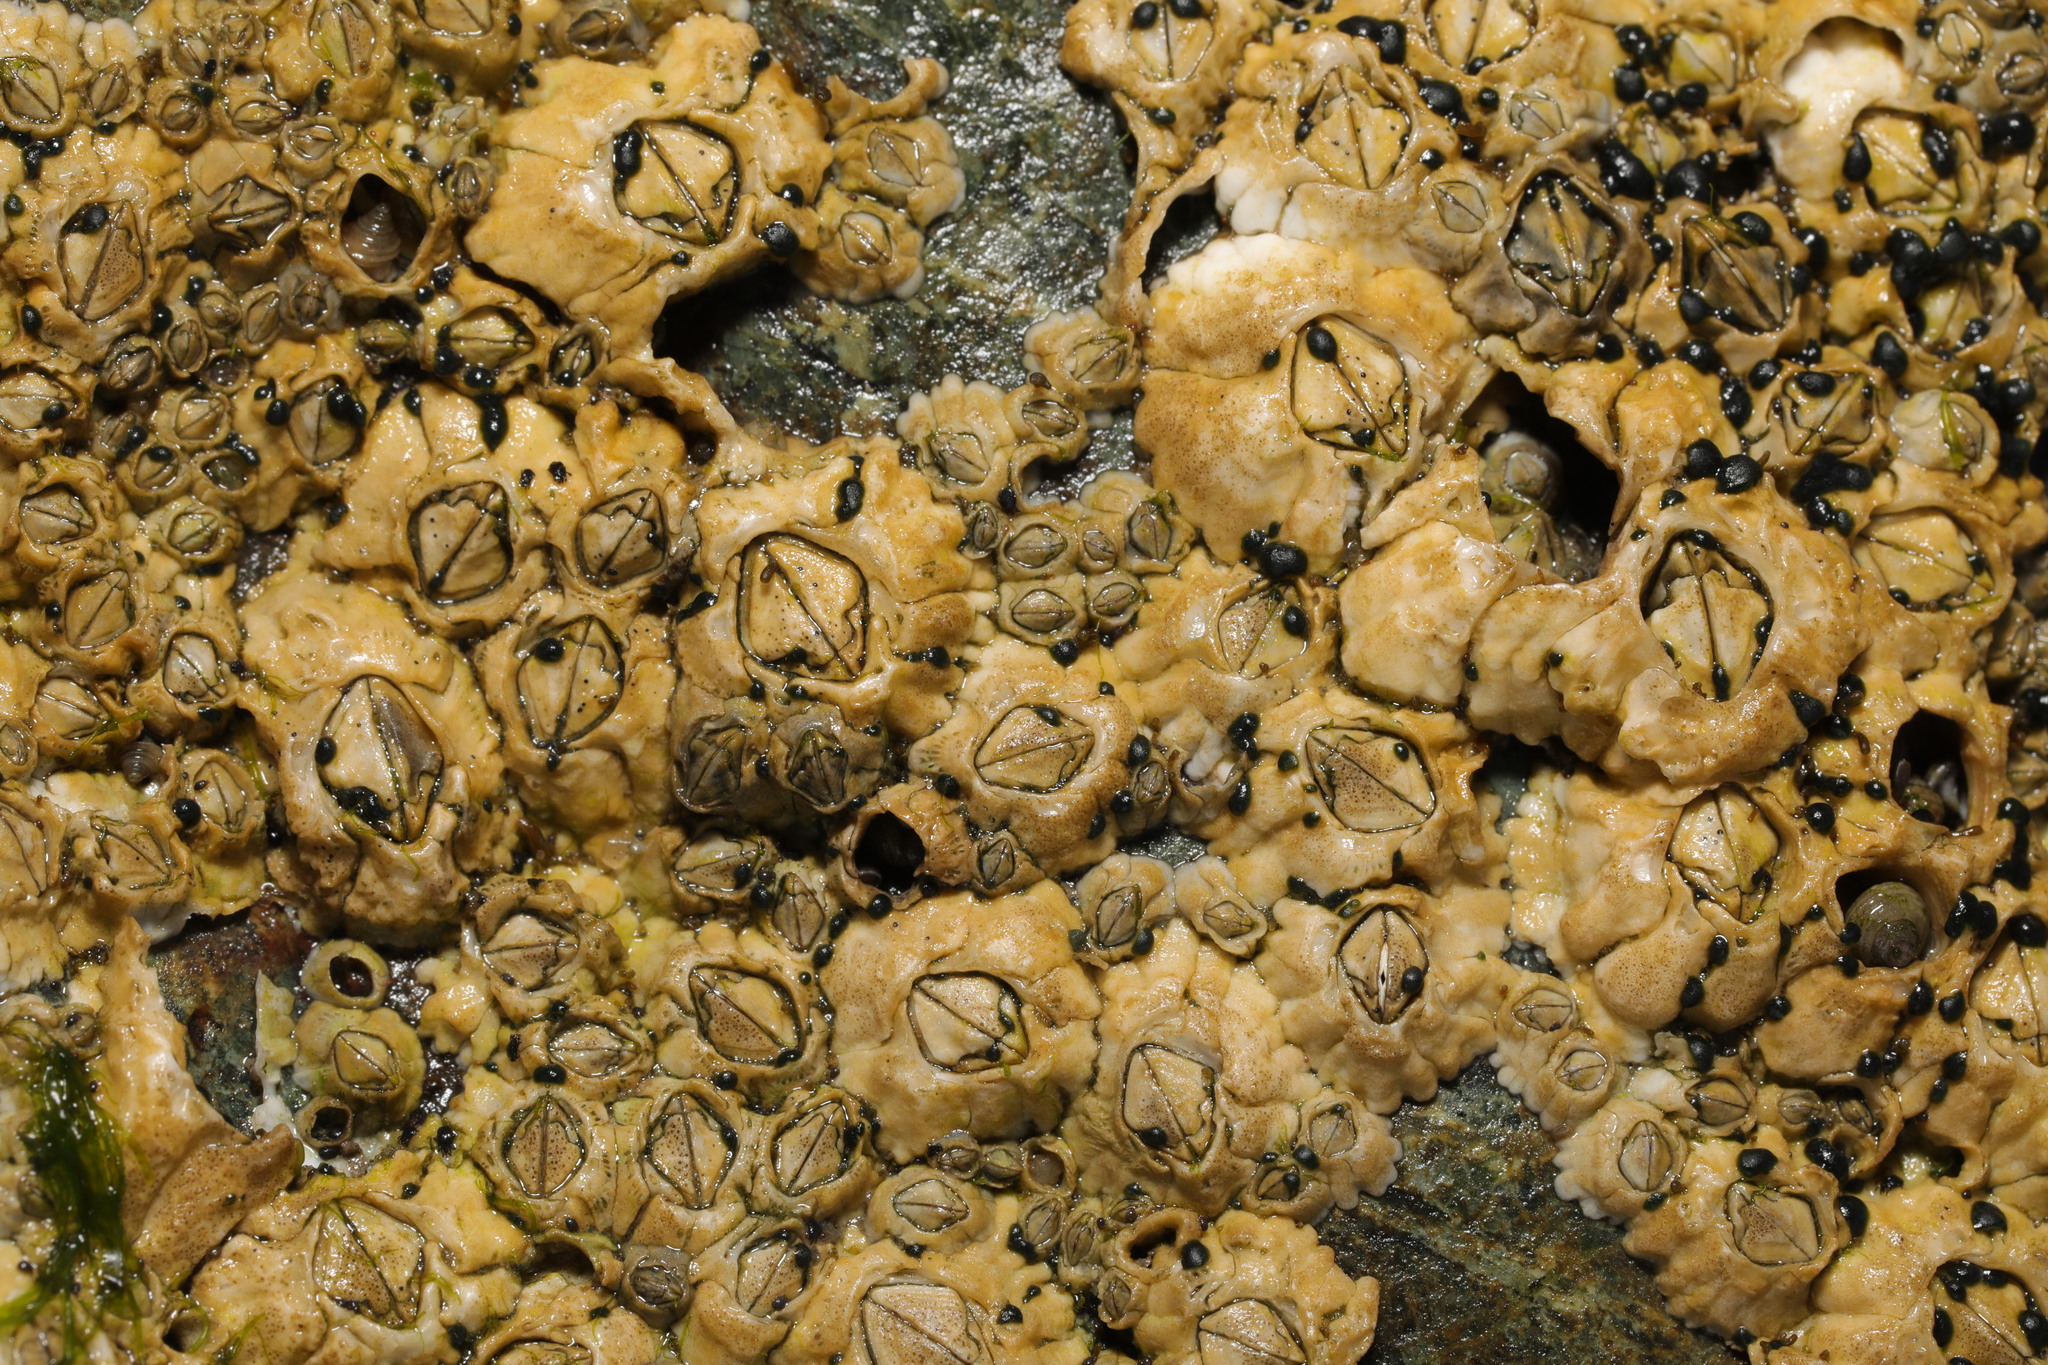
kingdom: Animalia
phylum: Arthropoda
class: Maxillopoda
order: Sessilia
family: Archaeobalanidae
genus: Semibalanus
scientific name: Semibalanus balanoides
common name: Acorn barnacle
